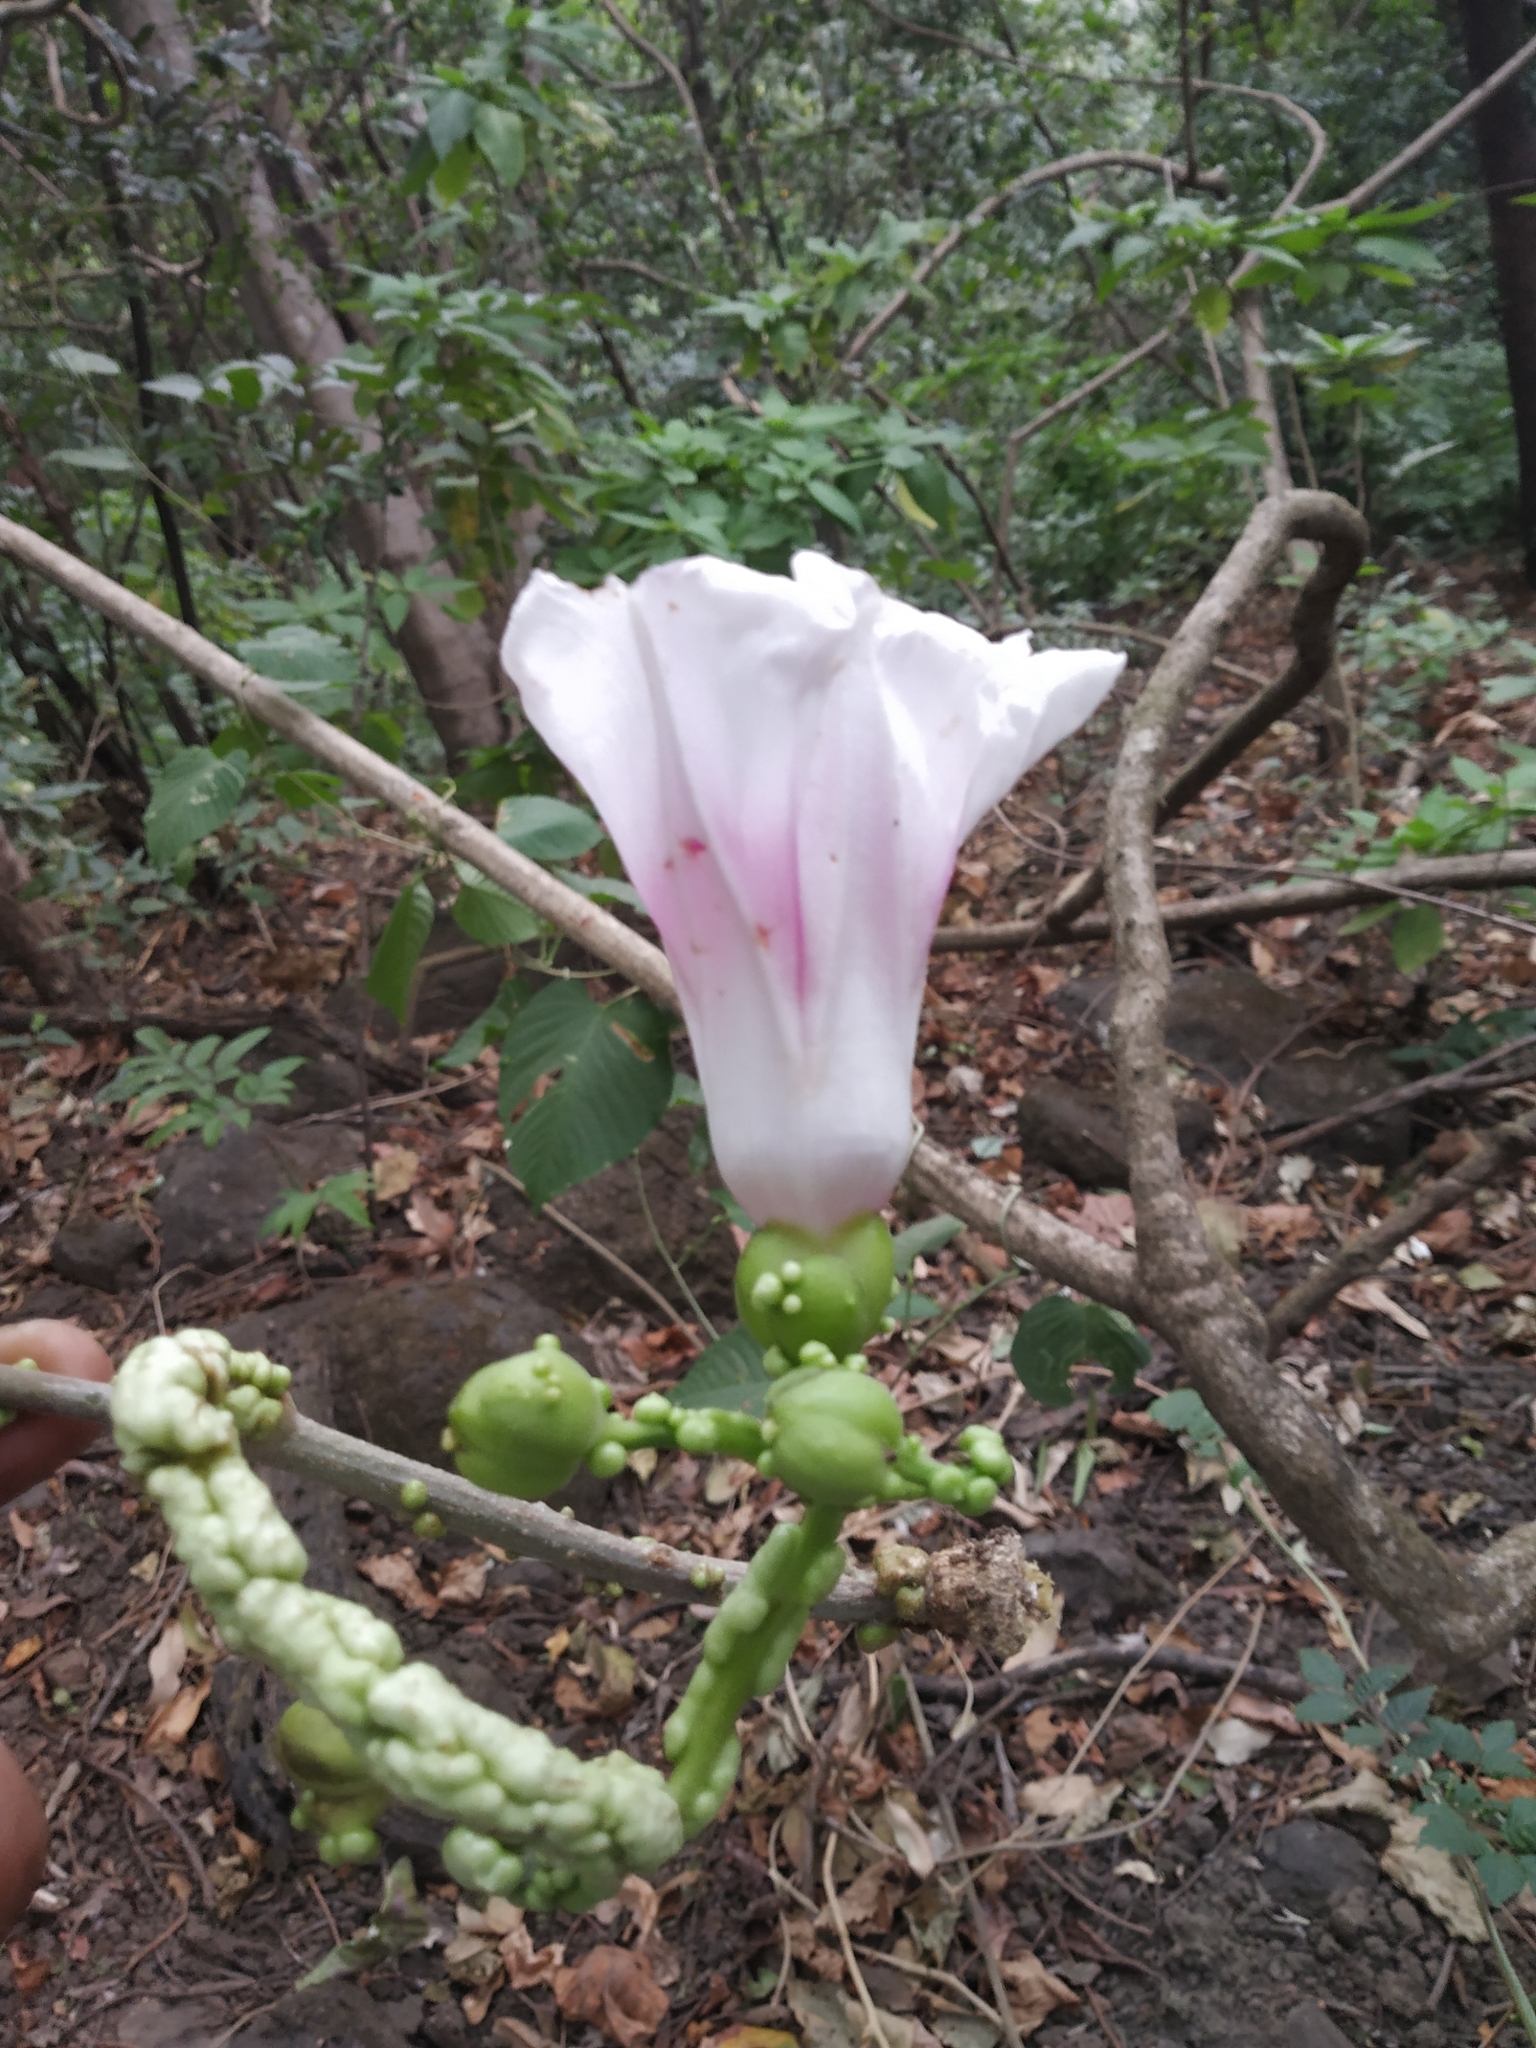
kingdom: Plantae
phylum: Tracheophyta
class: Magnoliopsida
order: Solanales
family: Convolvulaceae
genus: Ipomoea
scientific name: Ipomoea campanulata
